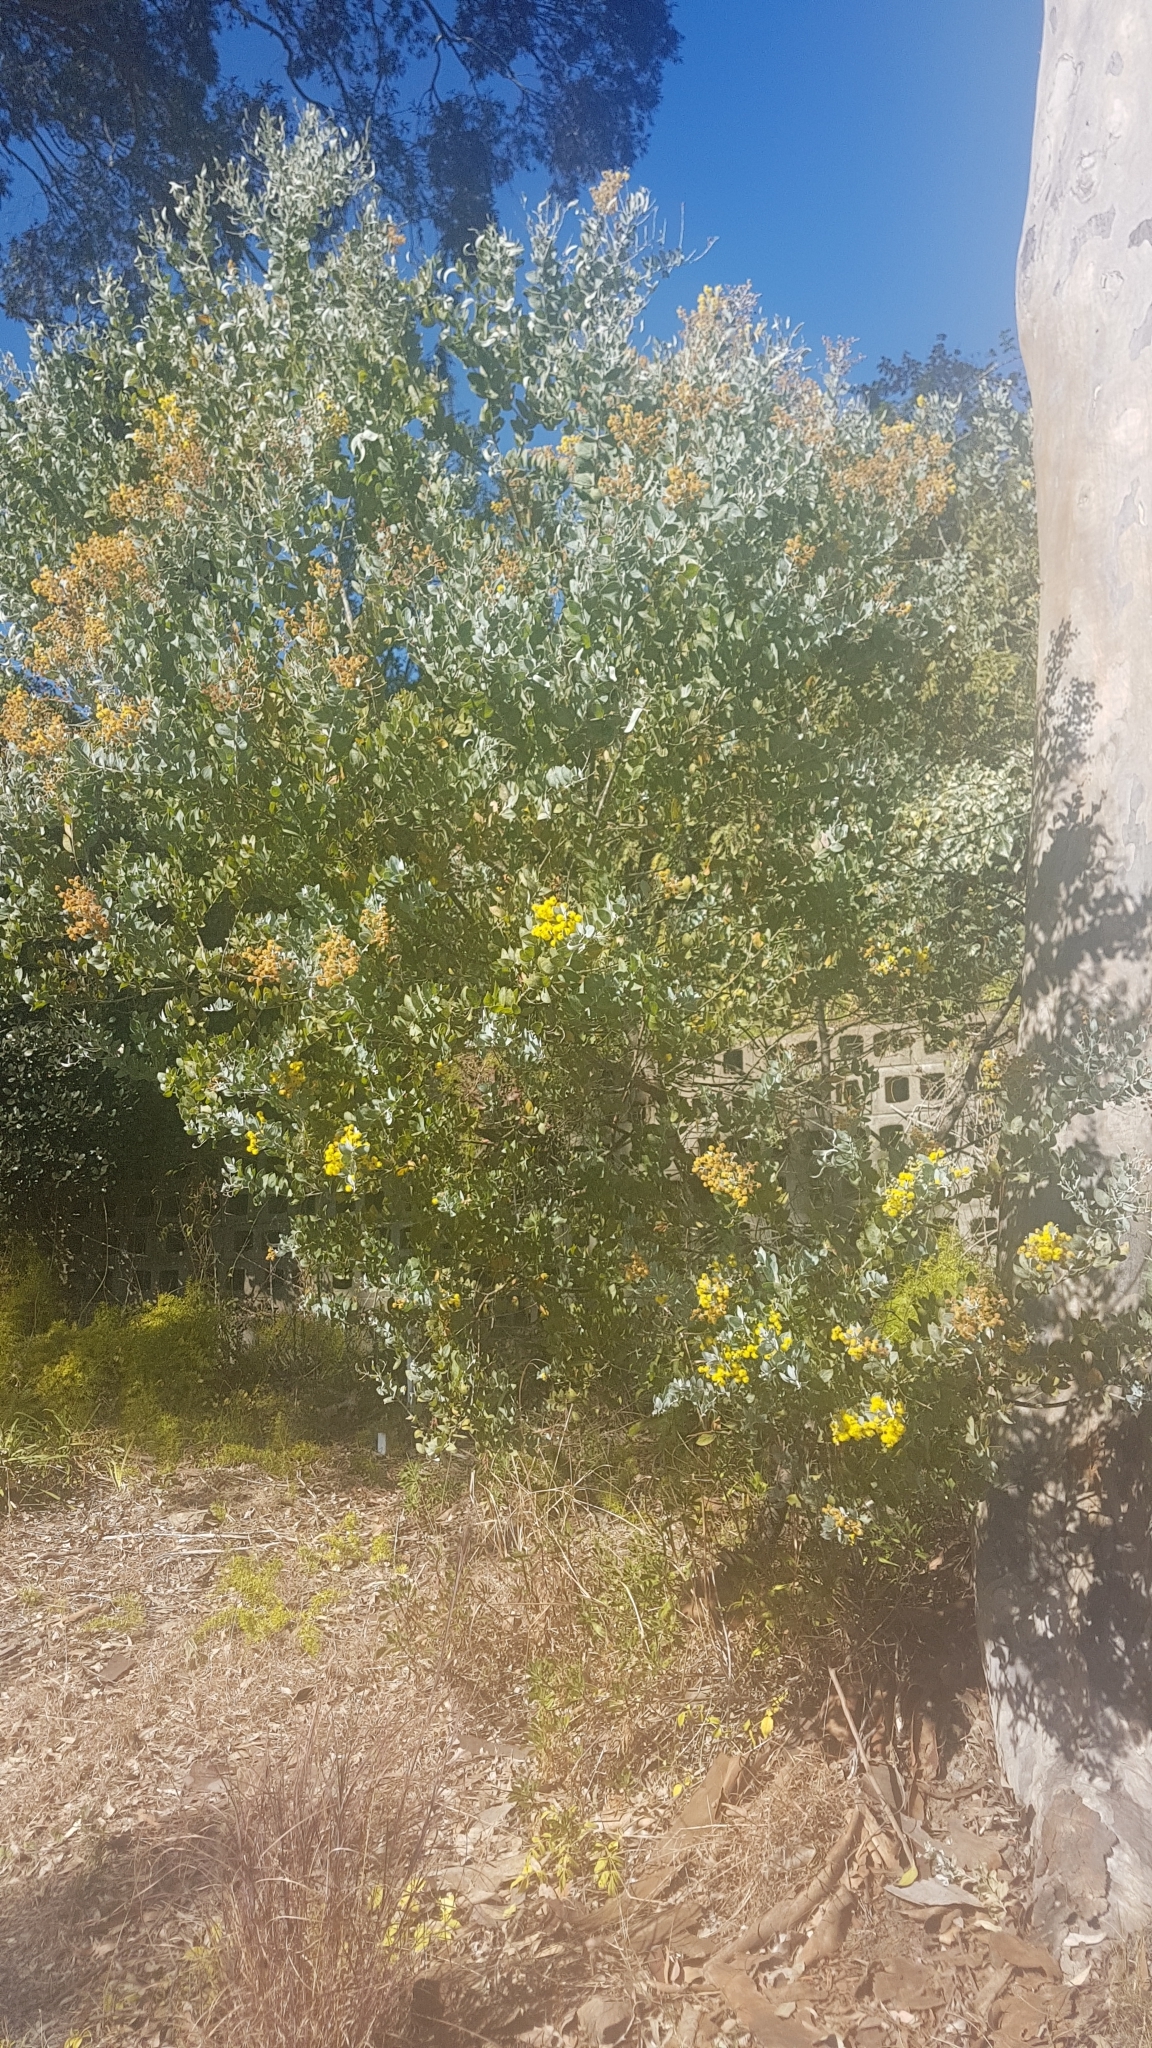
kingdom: Plantae
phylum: Tracheophyta
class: Magnoliopsida
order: Fabales
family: Fabaceae
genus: Acacia
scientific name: Acacia podalyriifolia
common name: Pearl wattle
